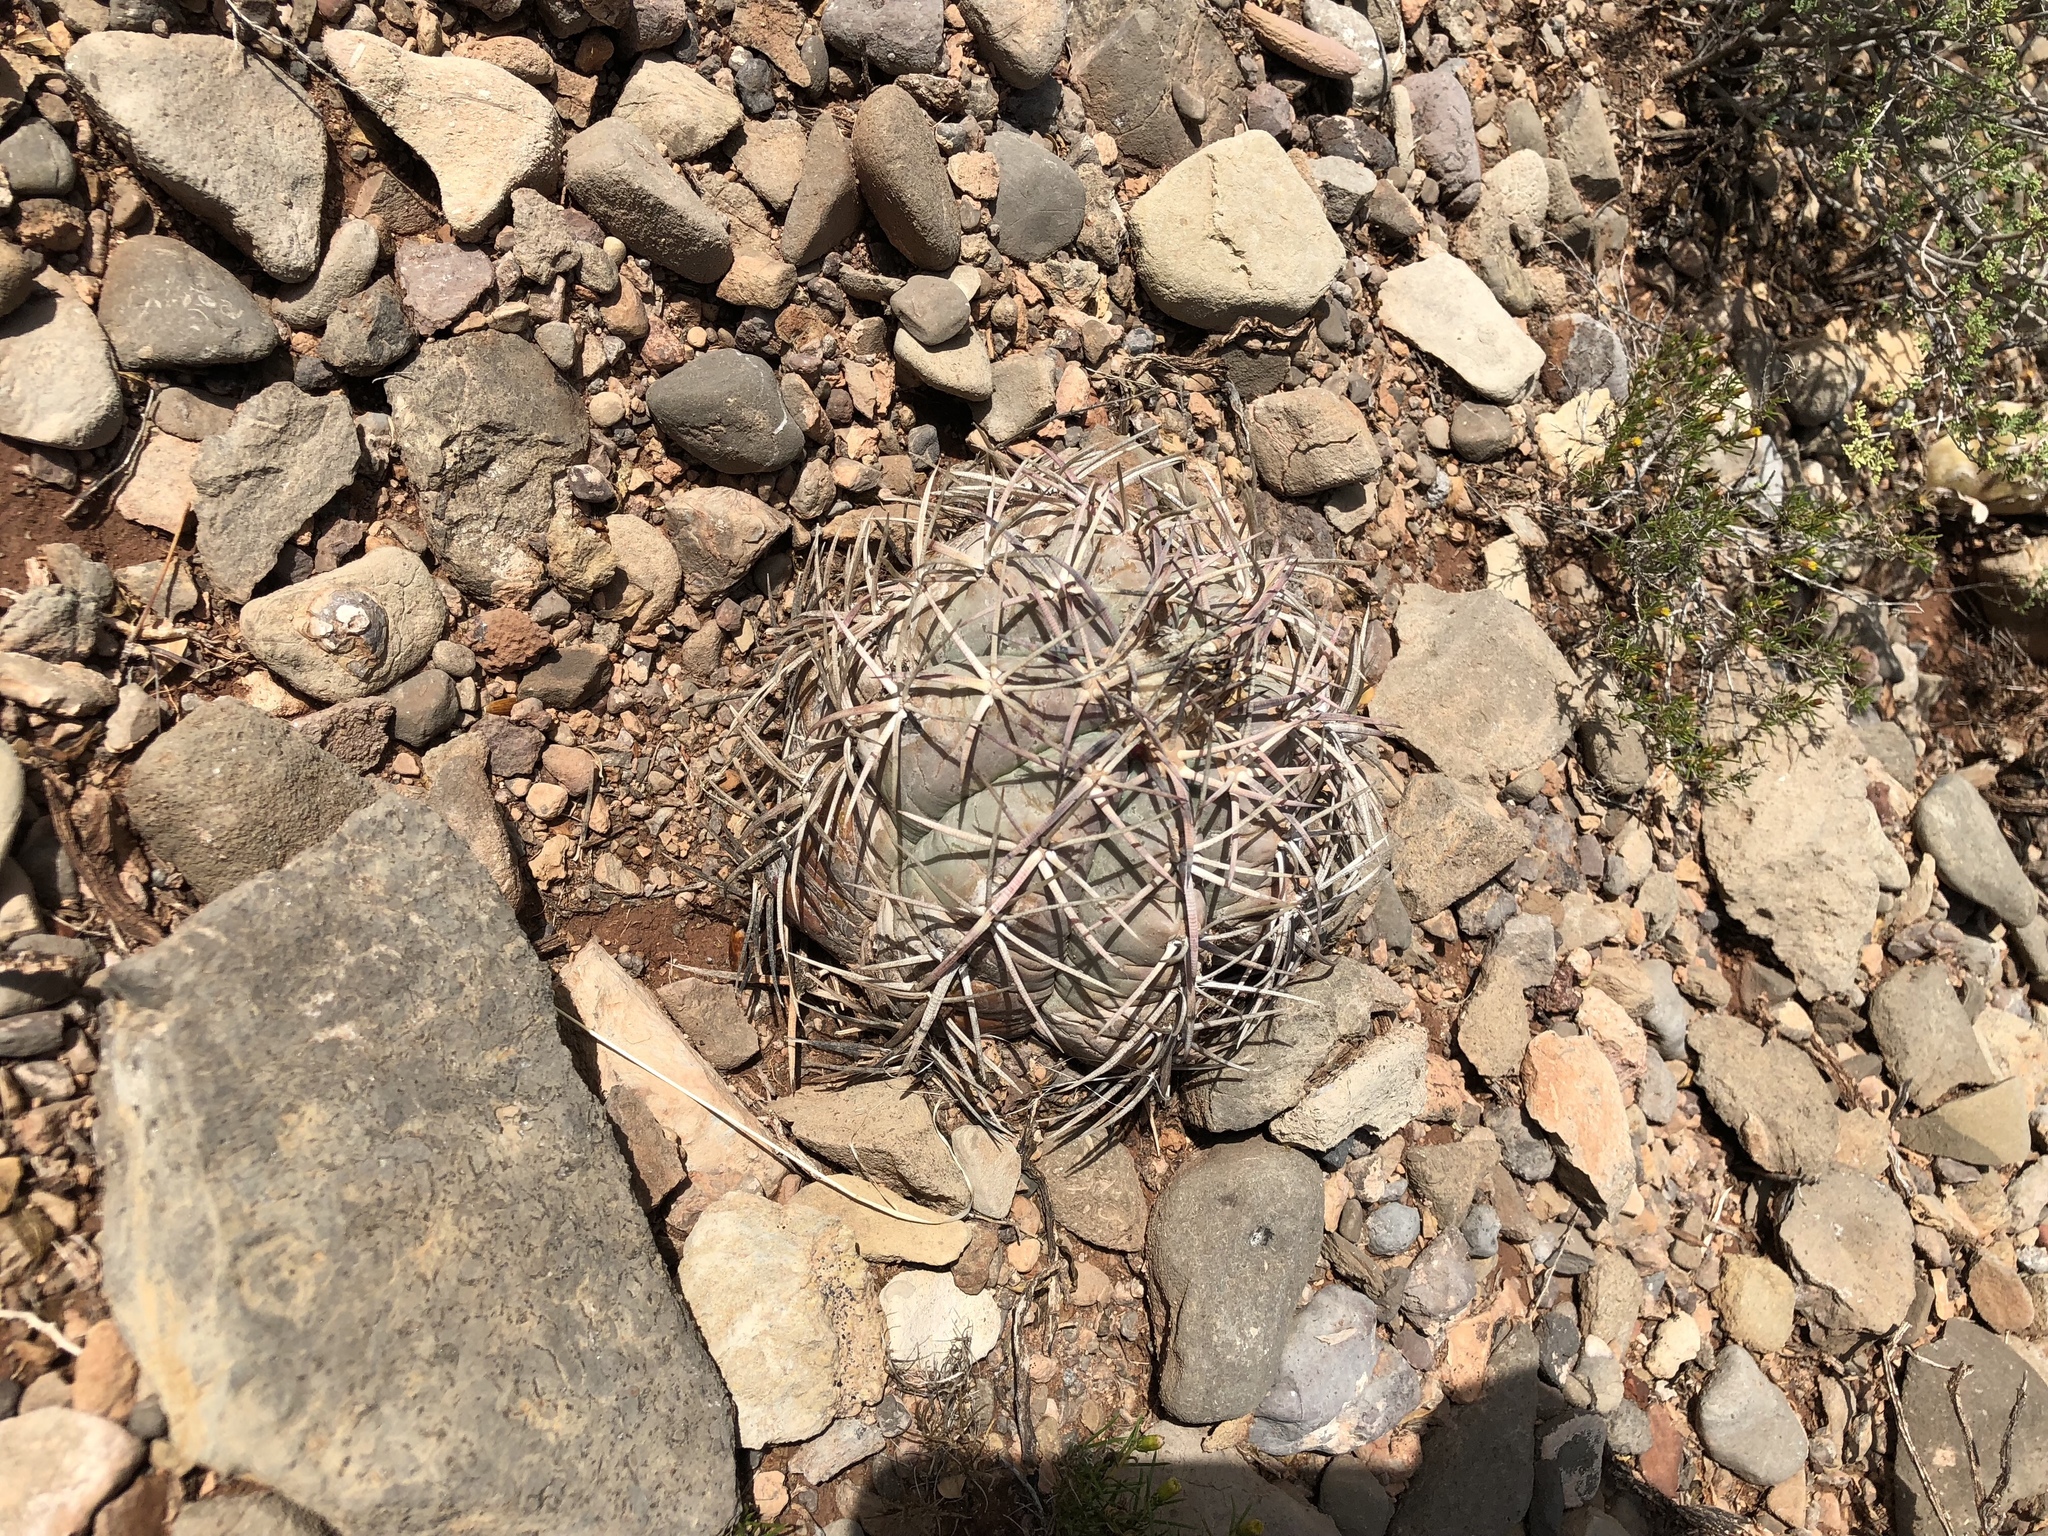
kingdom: Plantae
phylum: Tracheophyta
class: Magnoliopsida
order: Caryophyllales
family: Cactaceae
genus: Echinocactus
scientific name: Echinocactus horizonthalonius
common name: Devilshead
